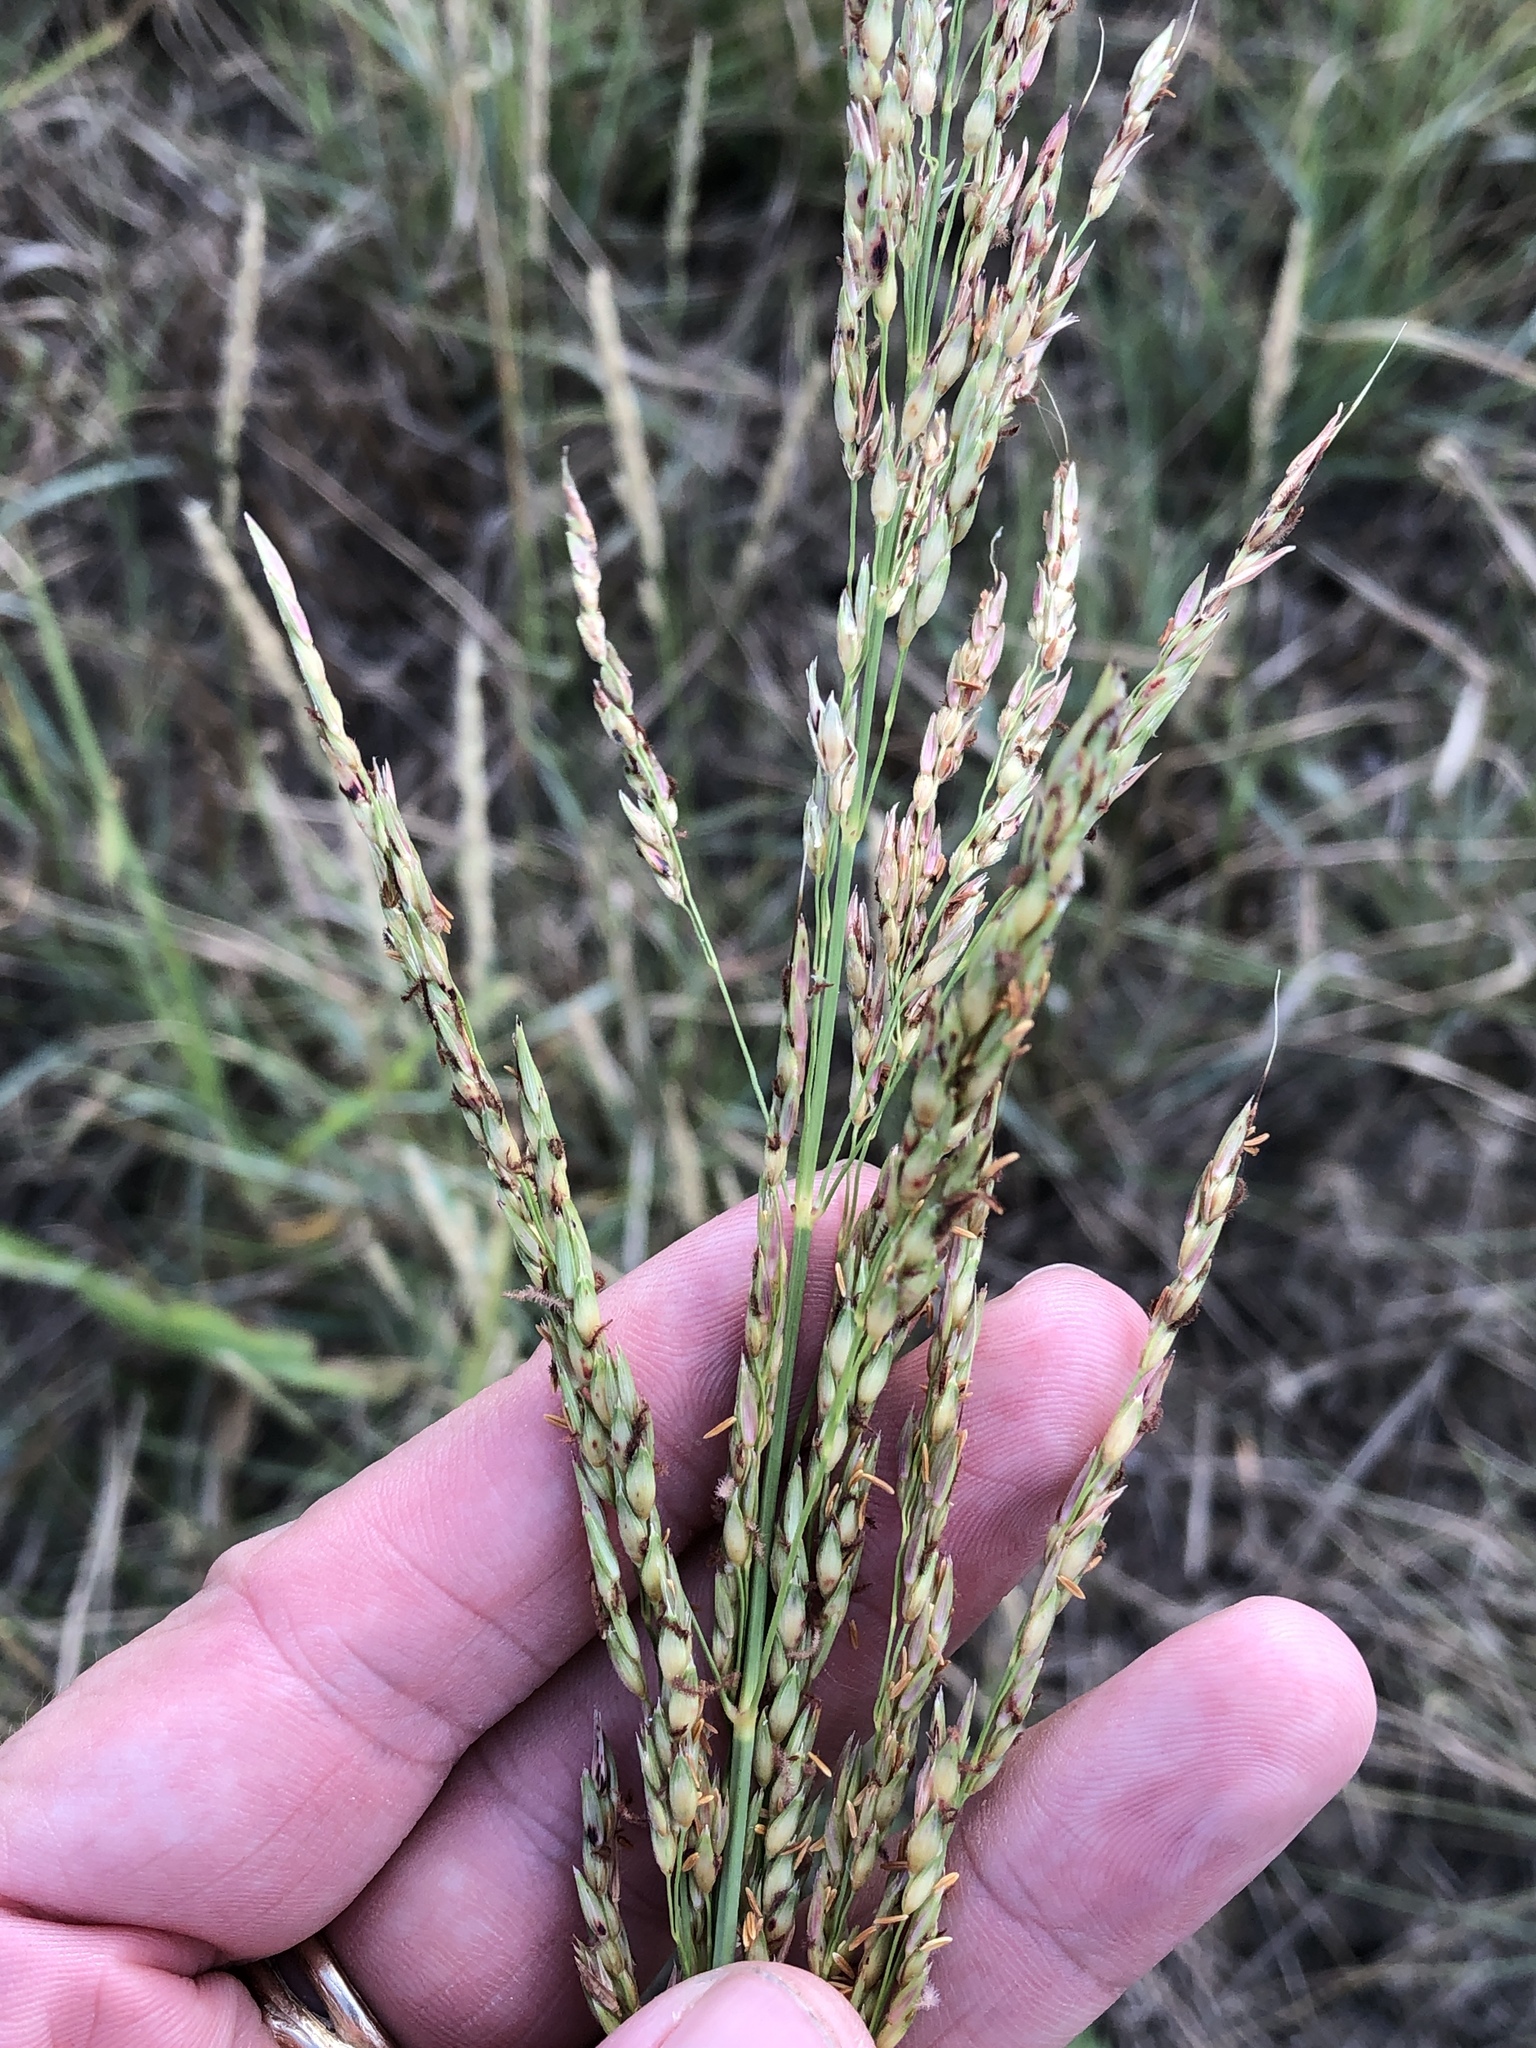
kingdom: Plantae
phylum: Tracheophyta
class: Liliopsida
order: Poales
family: Poaceae
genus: Sorghum
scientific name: Sorghum halepense
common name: Johnson-grass
